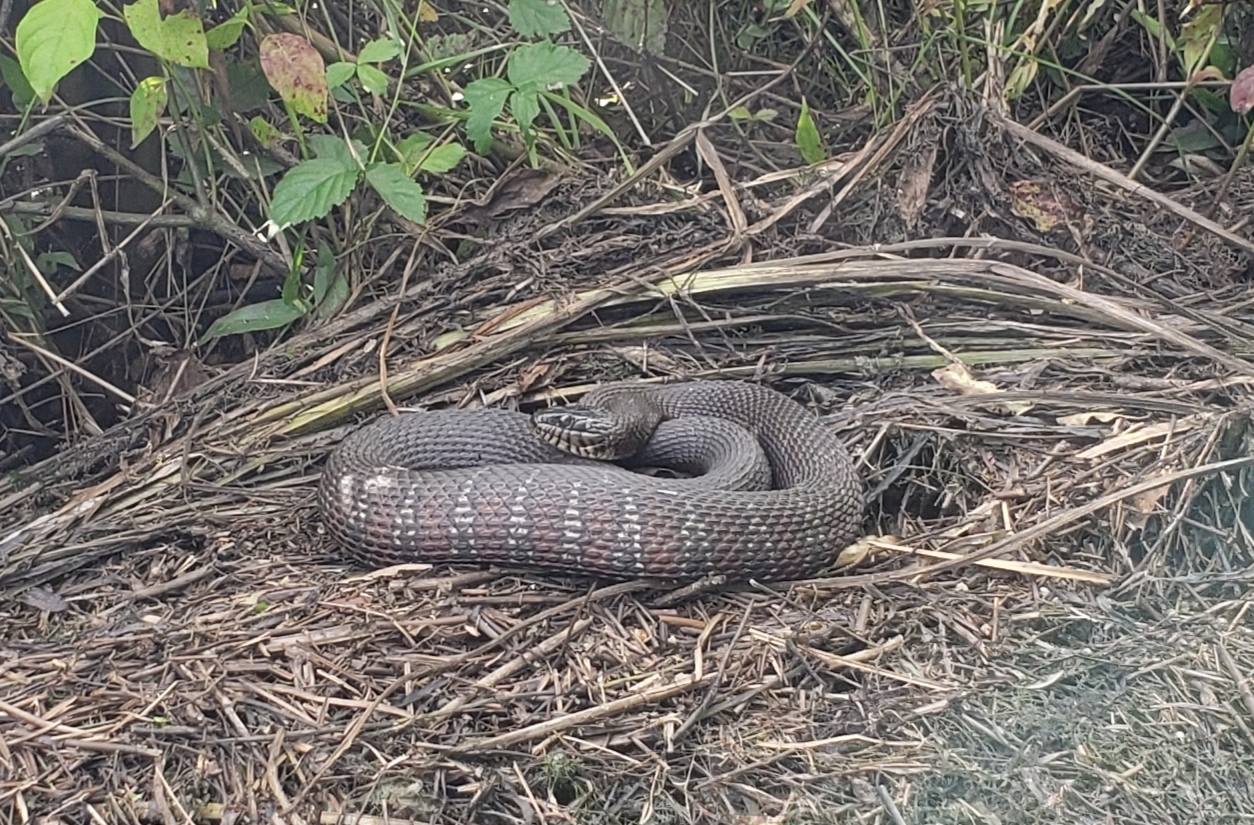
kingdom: Animalia
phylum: Chordata
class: Squamata
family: Colubridae
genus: Nerodia
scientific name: Nerodia sipedon
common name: Northern water snake
